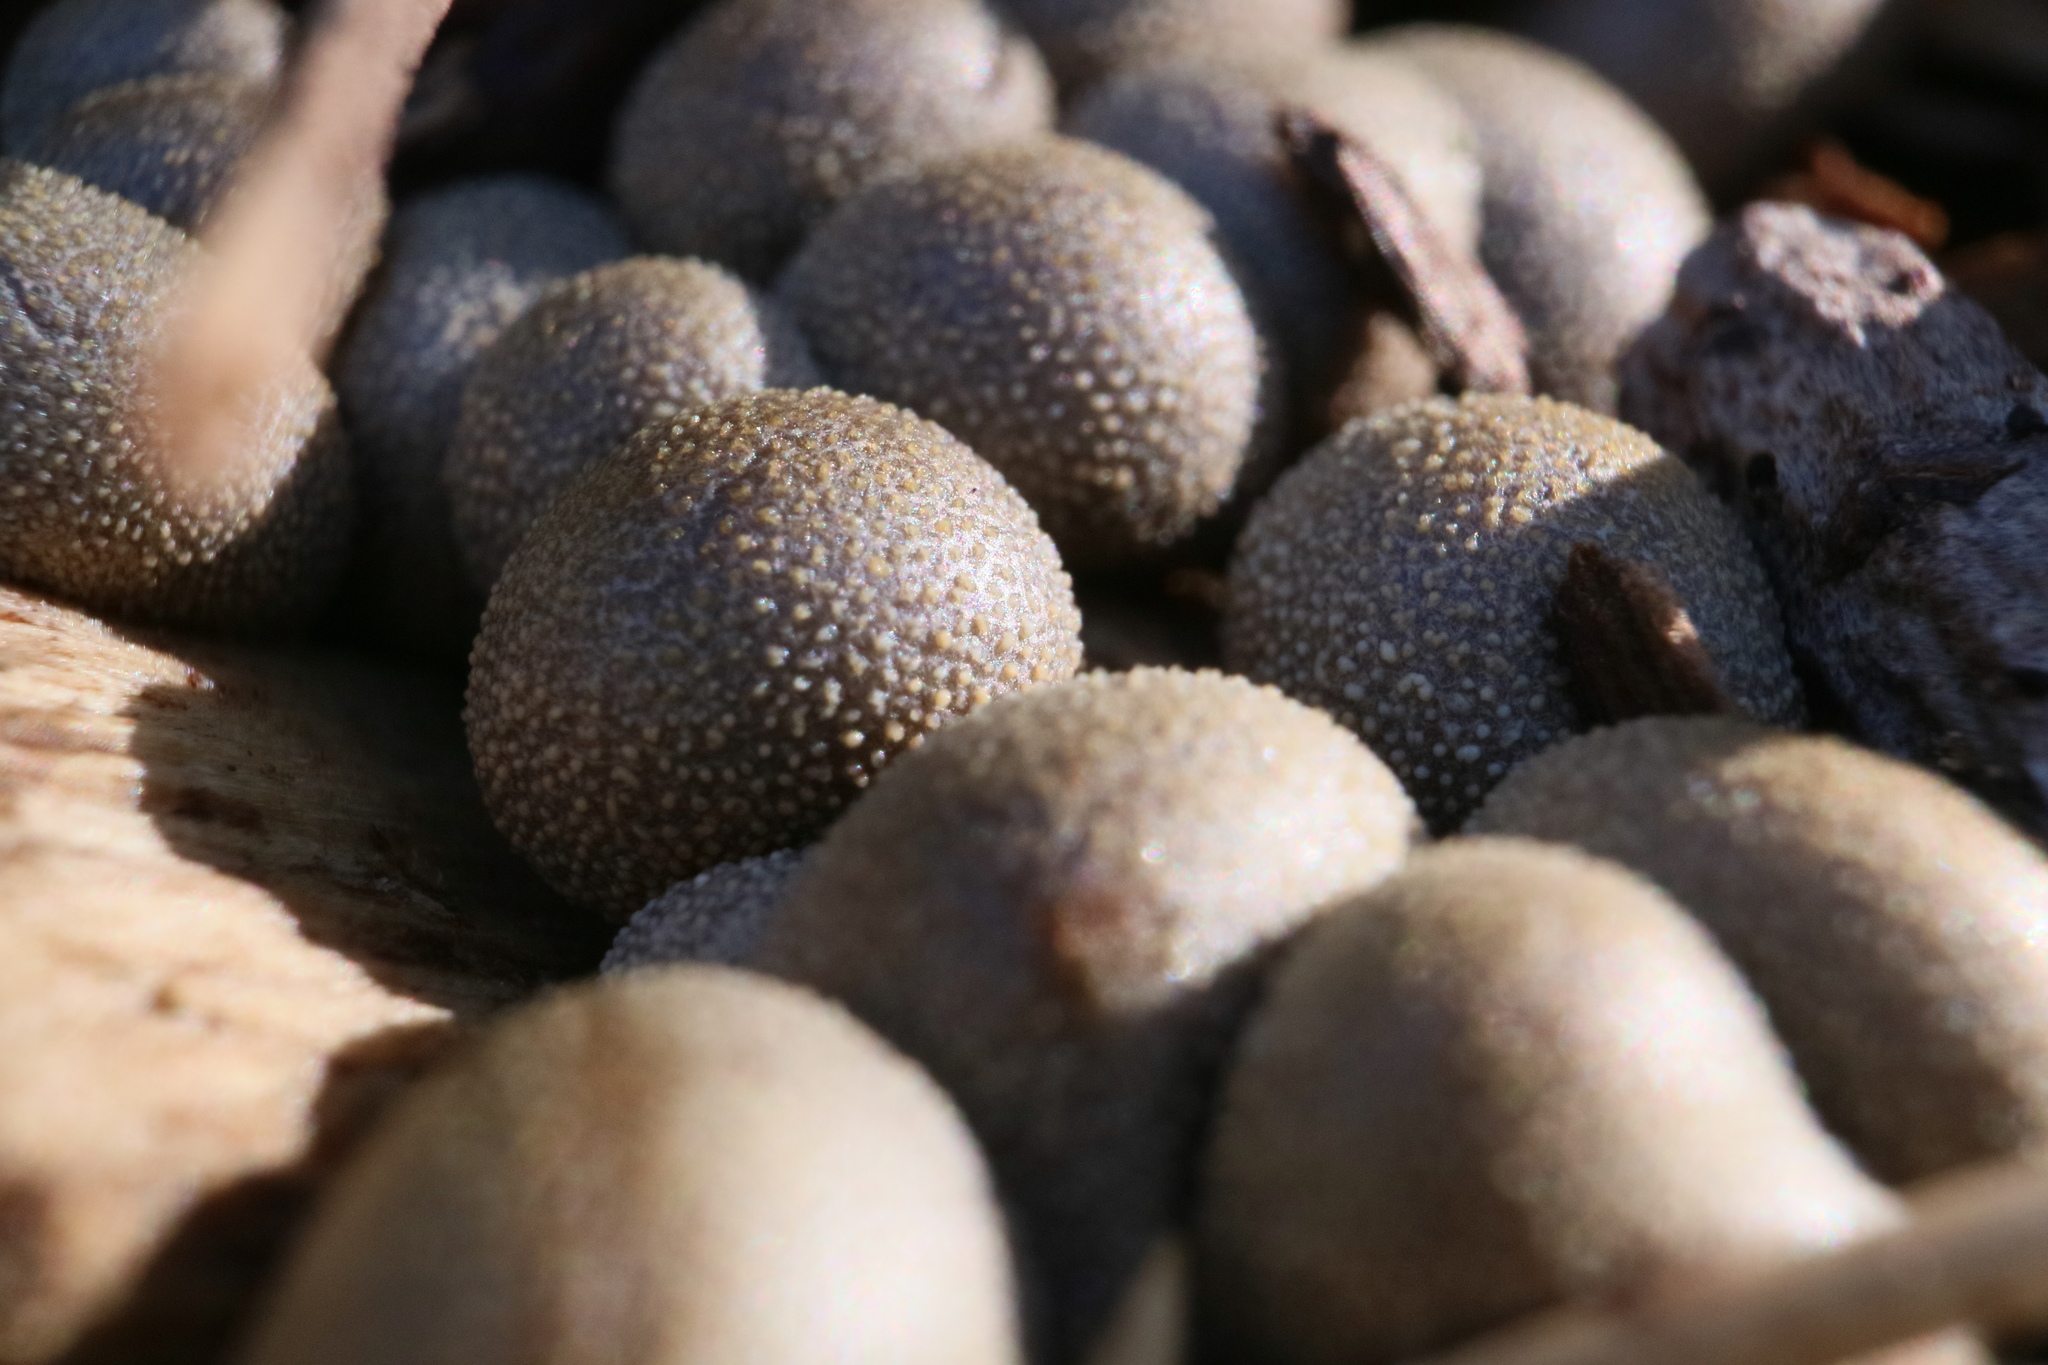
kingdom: Protozoa
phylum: Mycetozoa
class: Myxomycetes
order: Cribrariales
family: Tubiferaceae
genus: Lycogala
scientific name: Lycogala epidendrum
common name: Wolf's milk
